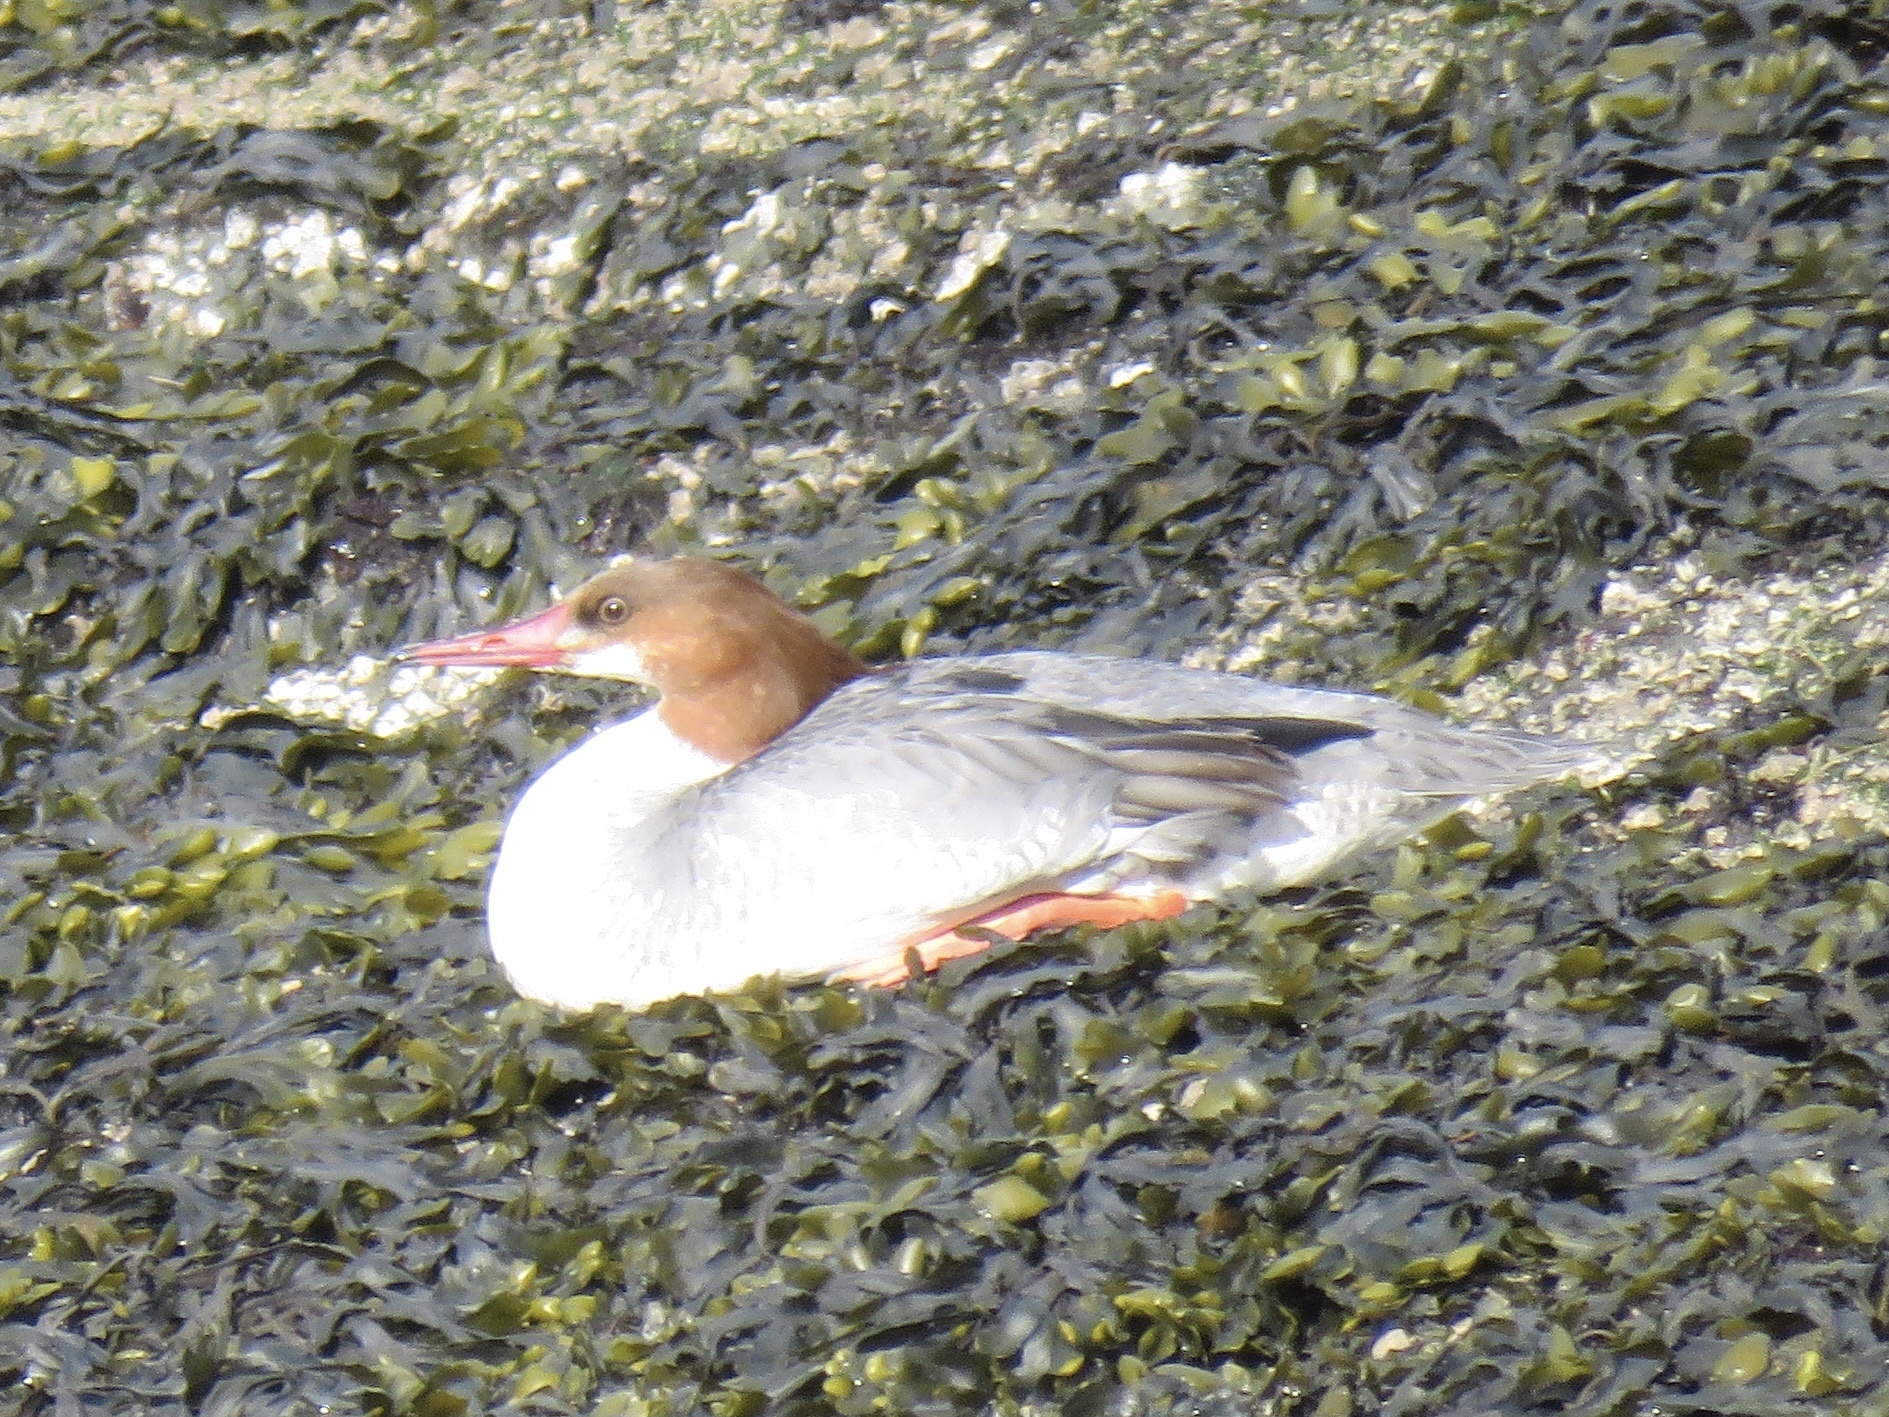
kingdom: Animalia
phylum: Chordata
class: Aves
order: Anseriformes
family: Anatidae
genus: Mergus
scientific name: Mergus merganser
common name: Common merganser
